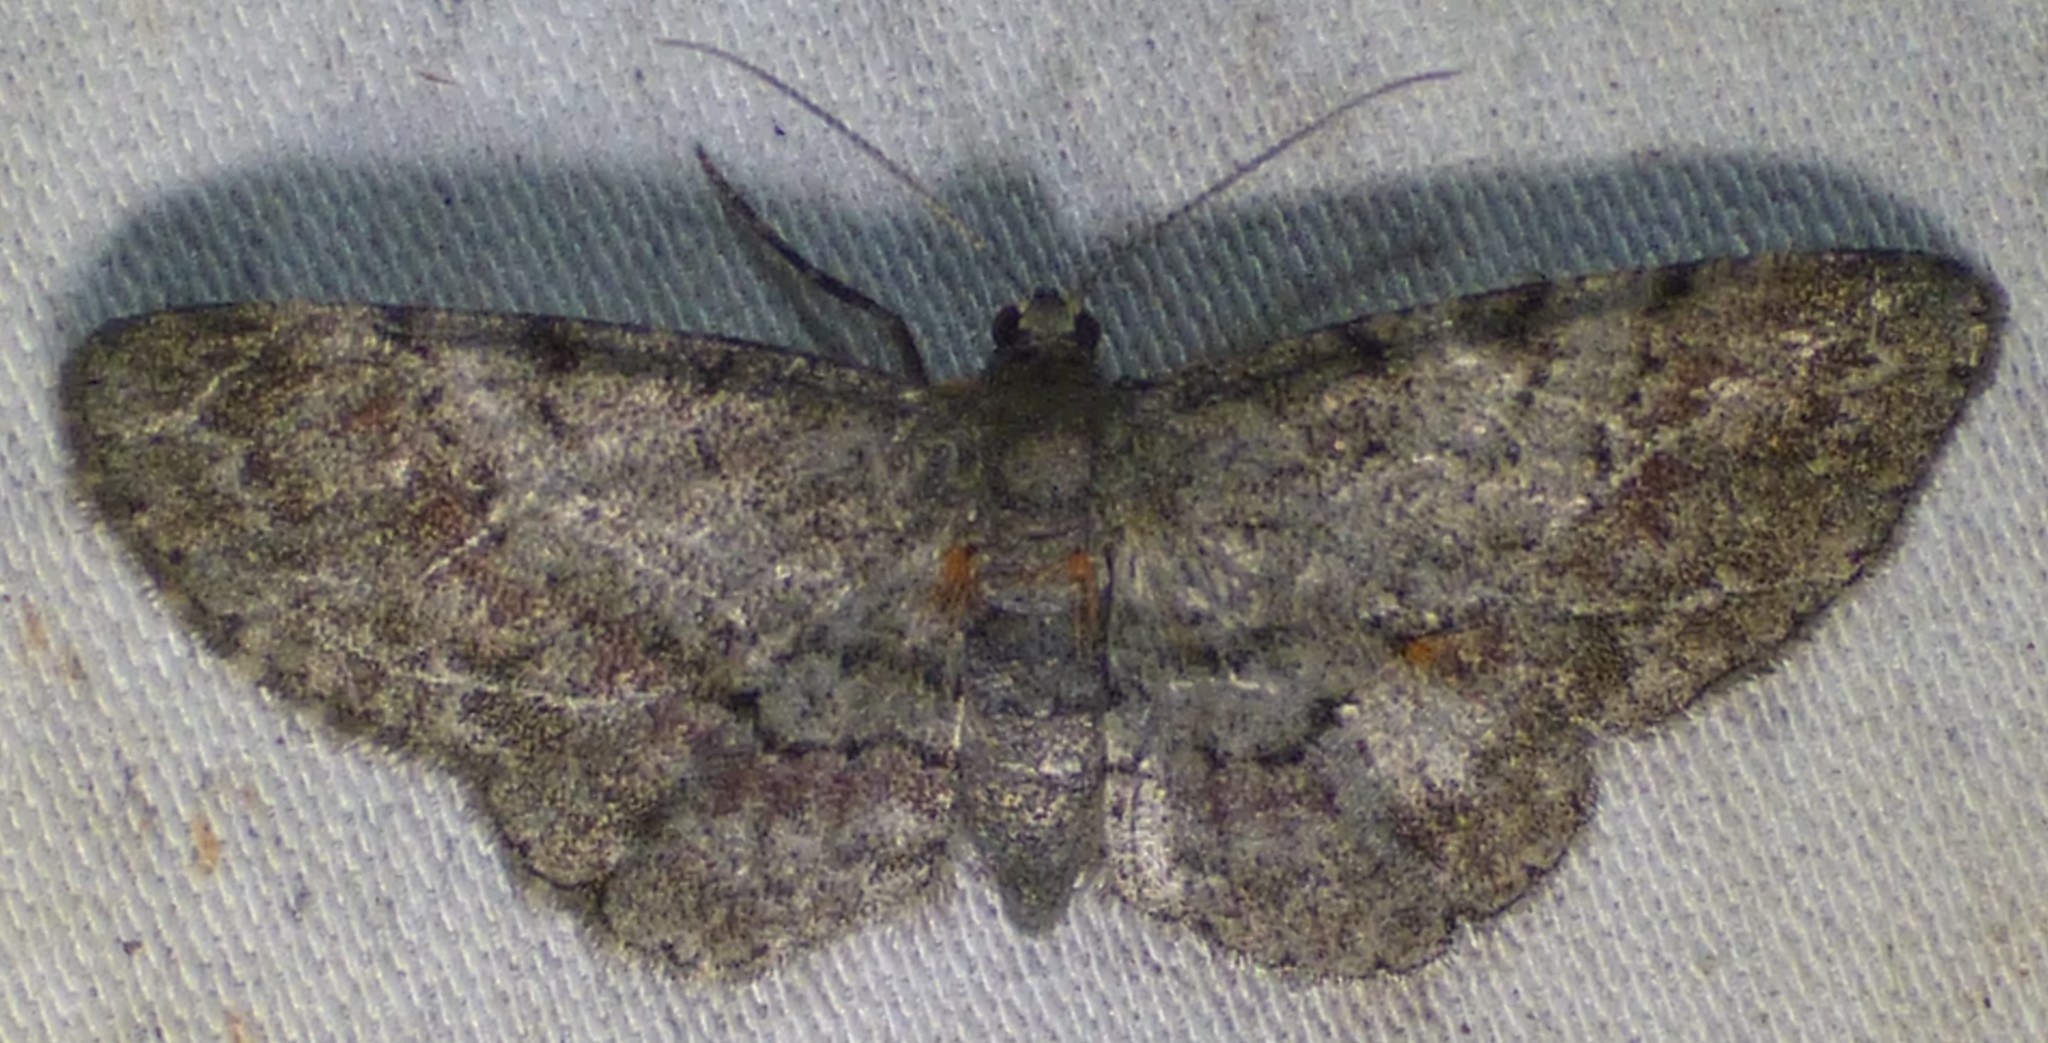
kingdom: Animalia
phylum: Arthropoda
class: Insecta
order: Lepidoptera
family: Geometridae
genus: Glenoides
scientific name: Glenoides texanaria
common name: Texas gray
